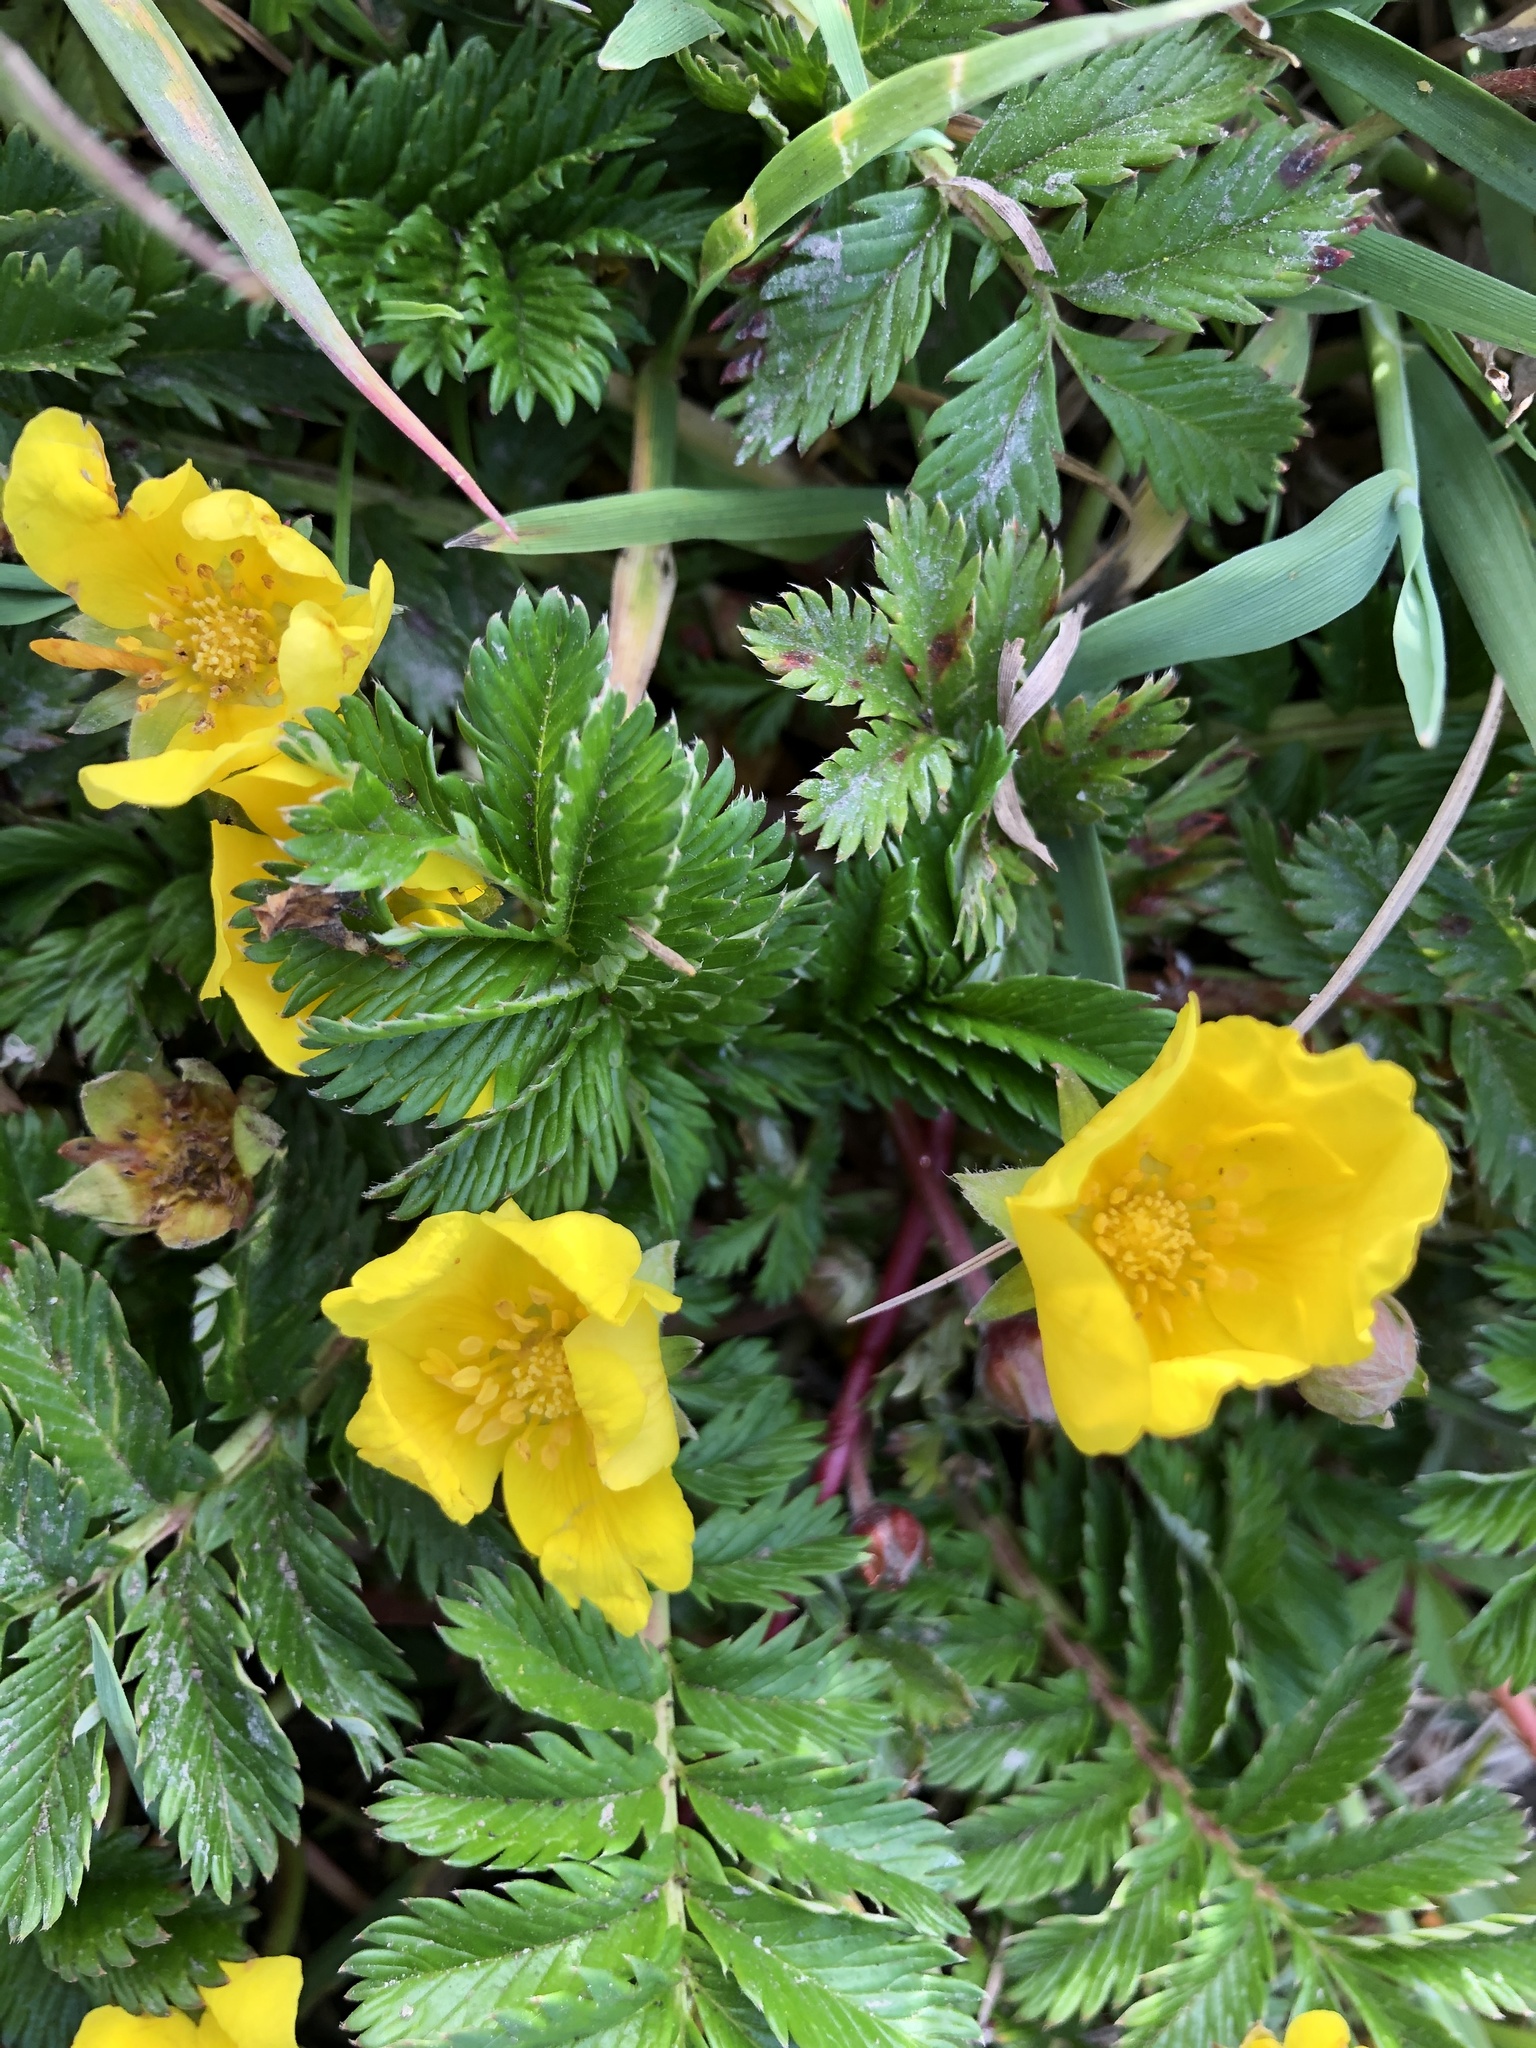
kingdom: Plantae
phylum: Tracheophyta
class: Magnoliopsida
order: Rosales
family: Rosaceae
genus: Argentina
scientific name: Argentina anserina
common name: Common silverweed
